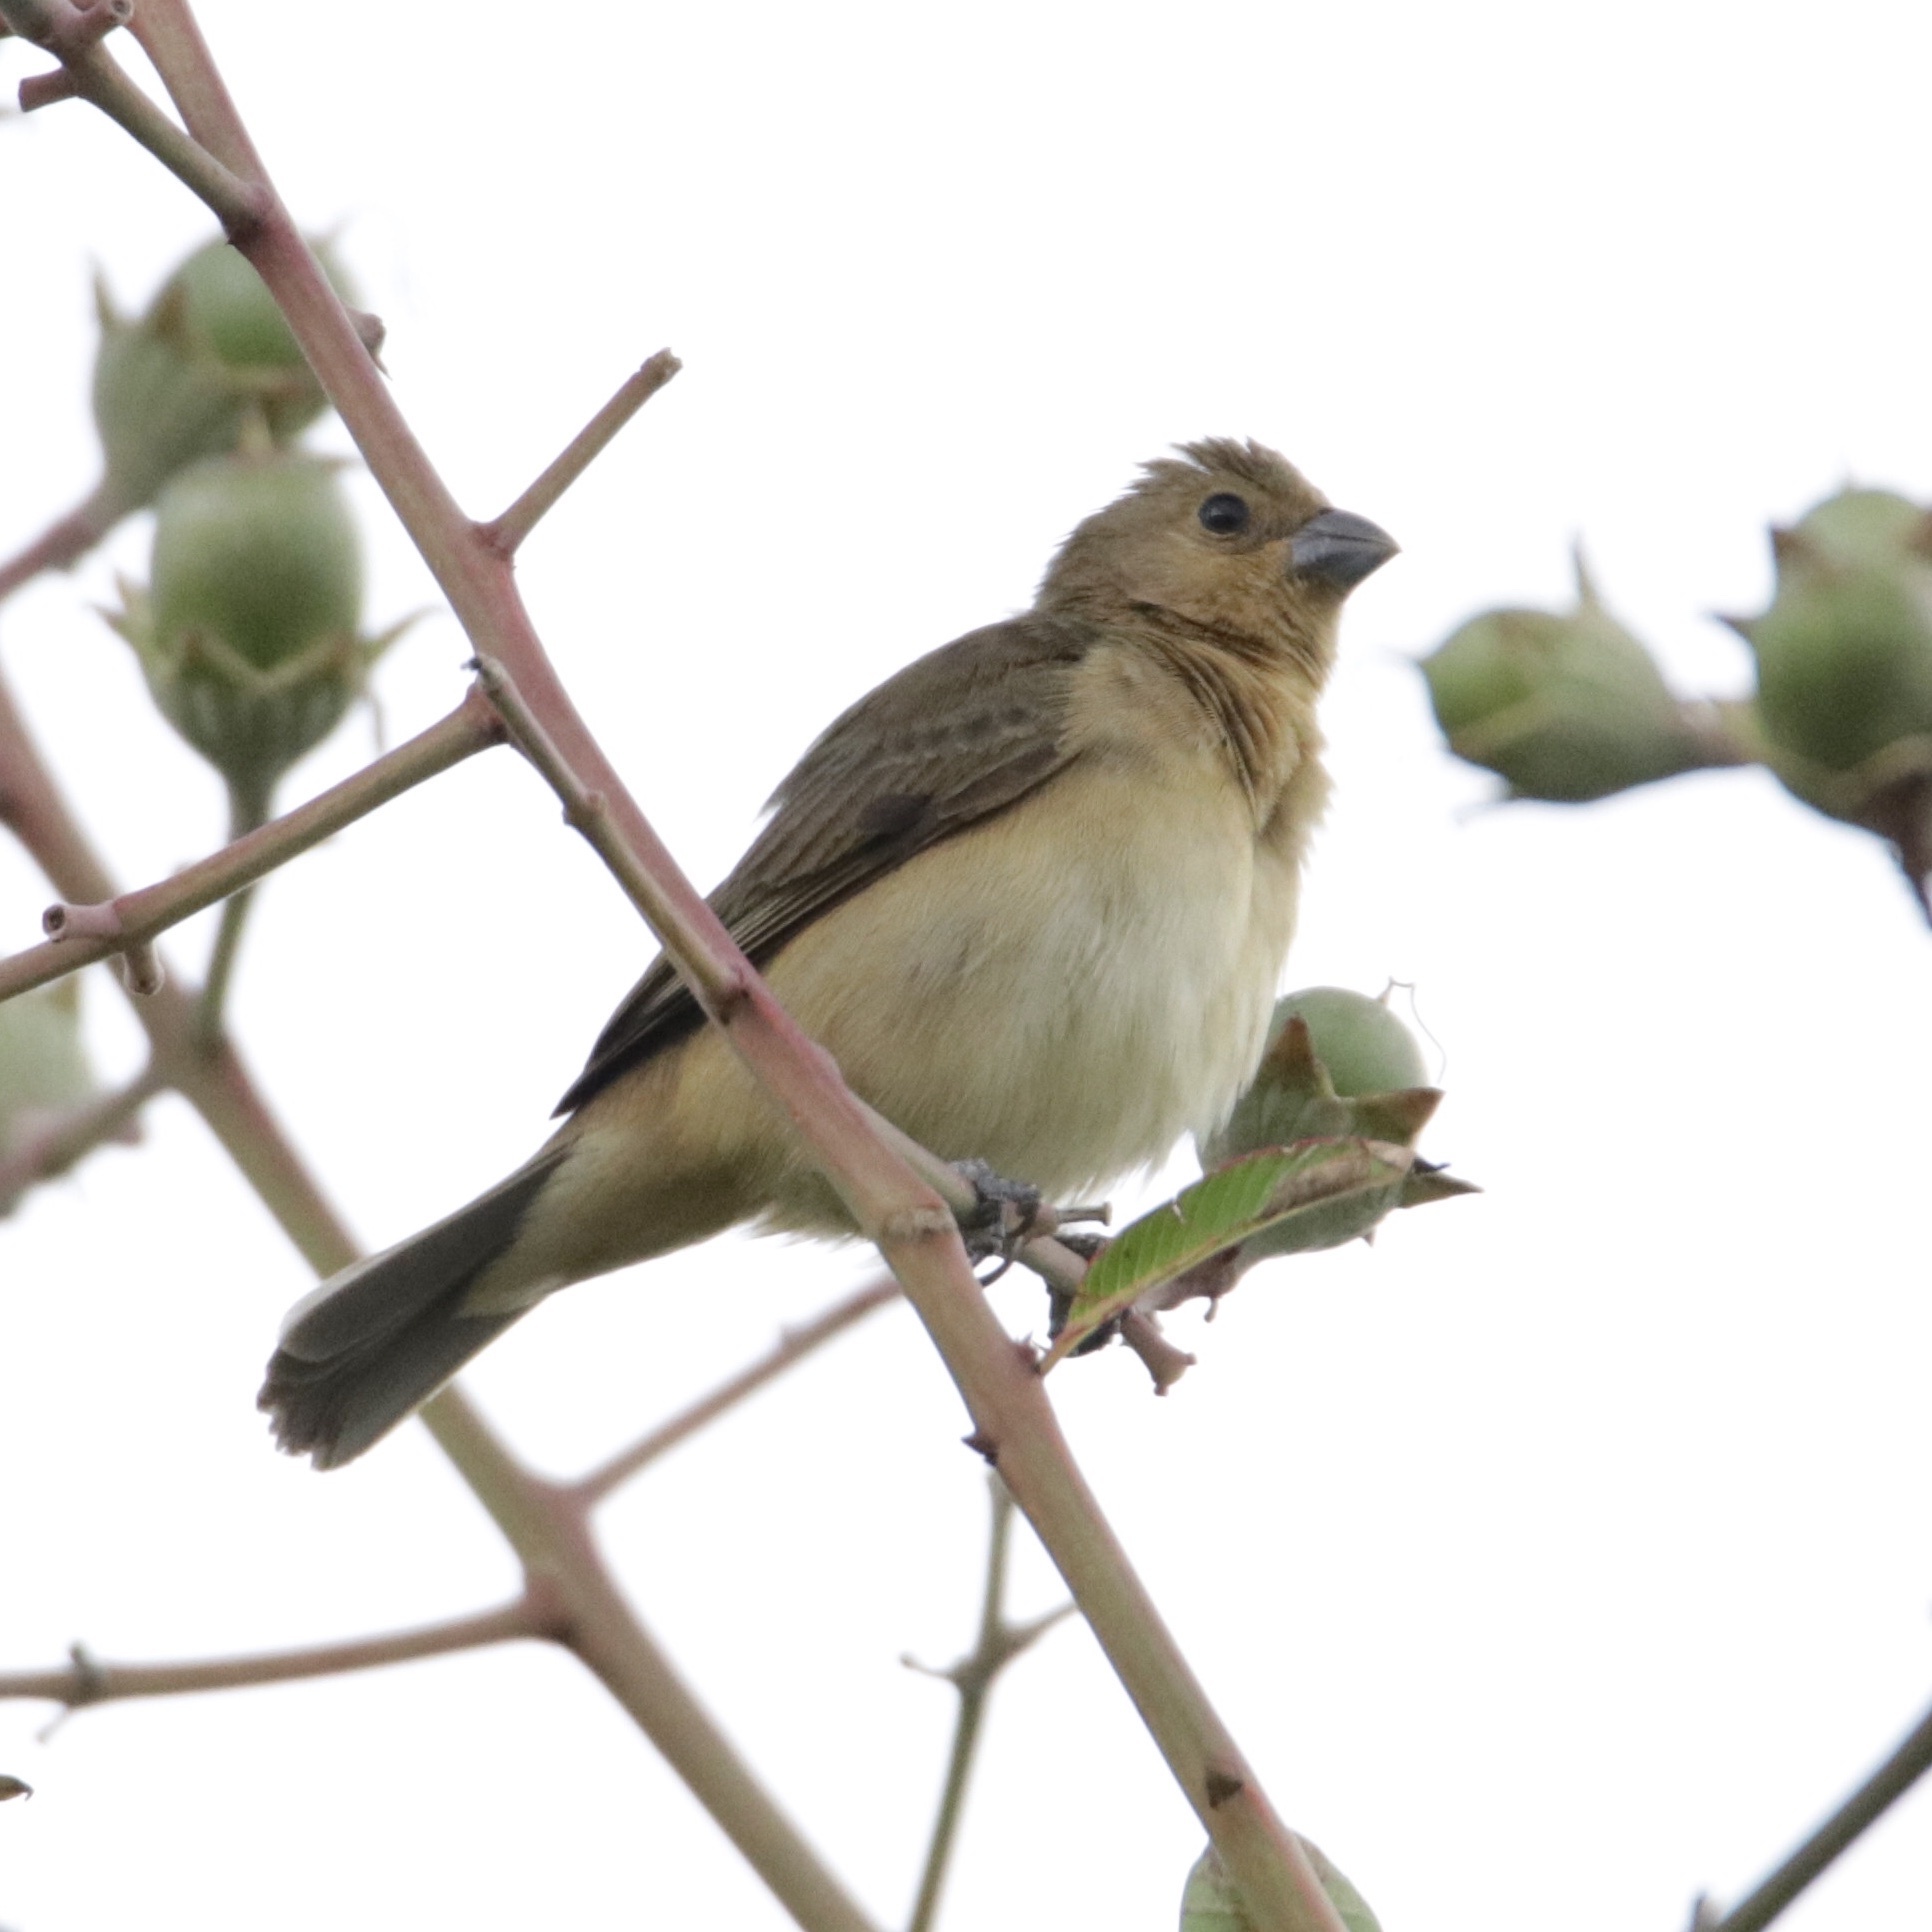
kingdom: Animalia
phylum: Chordata
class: Aves
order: Passeriformes
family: Thraupidae
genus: Sporophila
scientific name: Sporophila nigricollis
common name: Yellow-bellied seedeater
